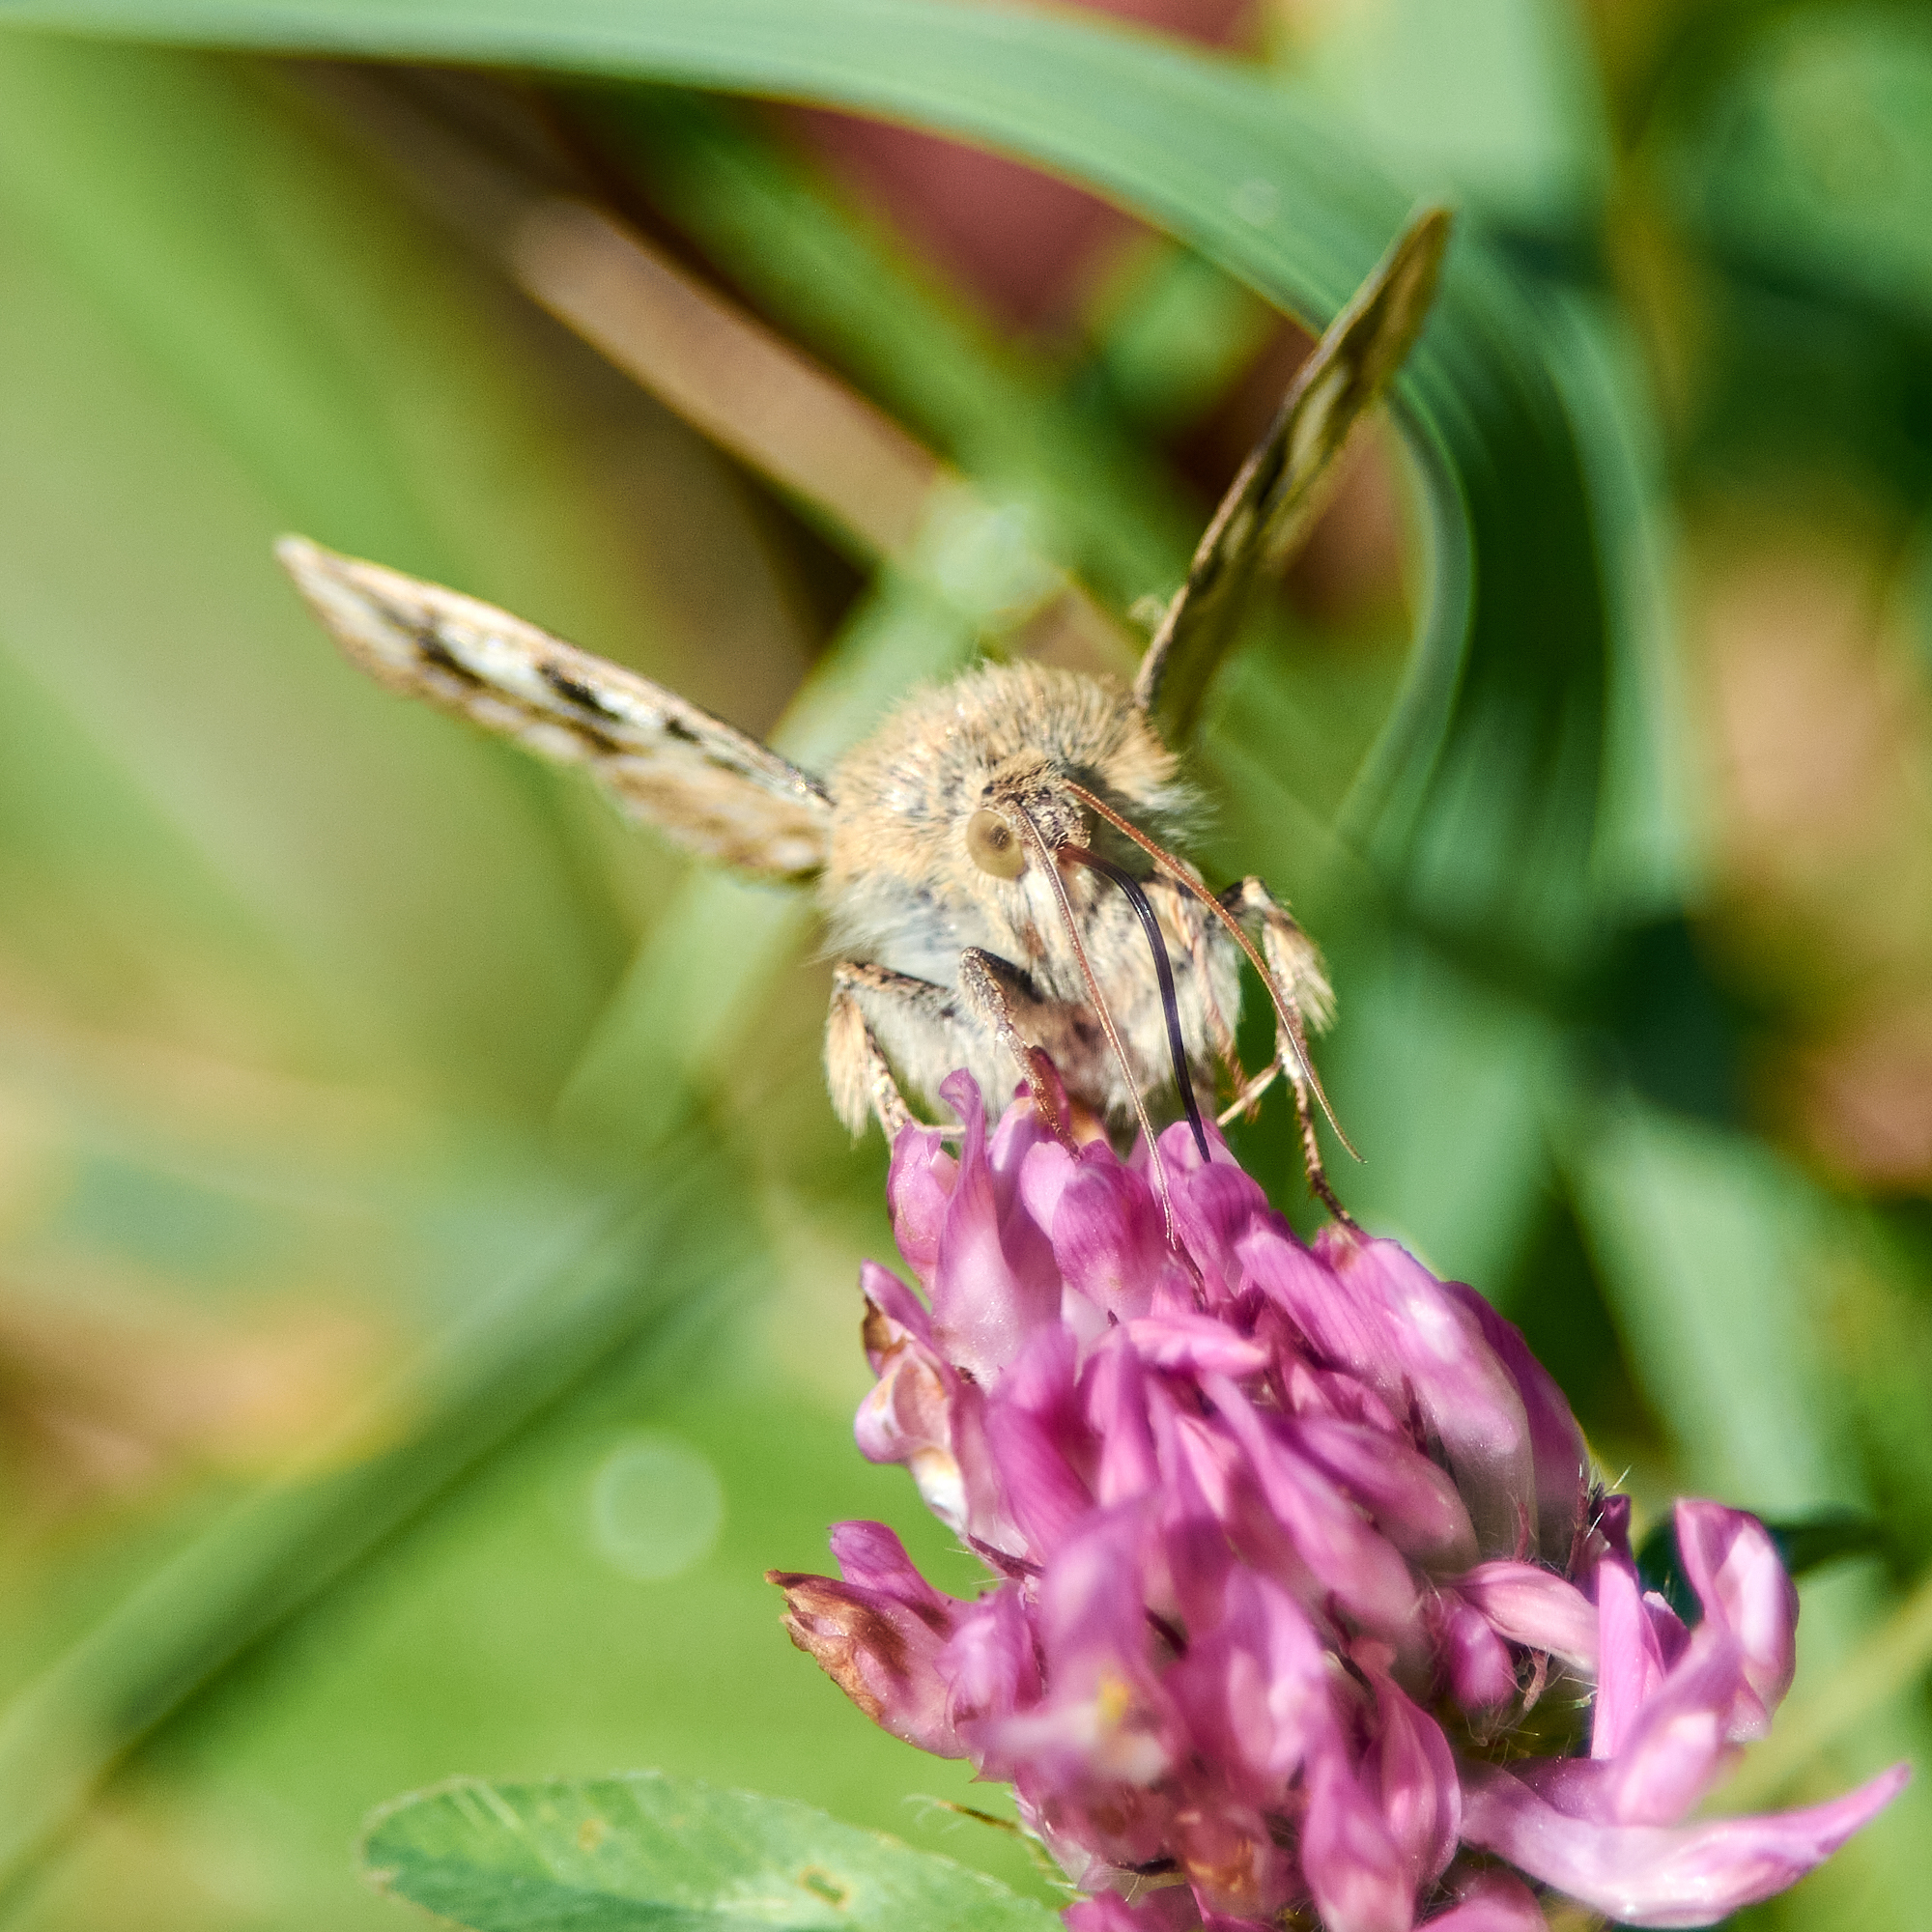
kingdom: Animalia
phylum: Arthropoda
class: Insecta
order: Lepidoptera
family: Noctuidae
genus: Heliothis
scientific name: Heliothis viriplaca
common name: Marbled clover
